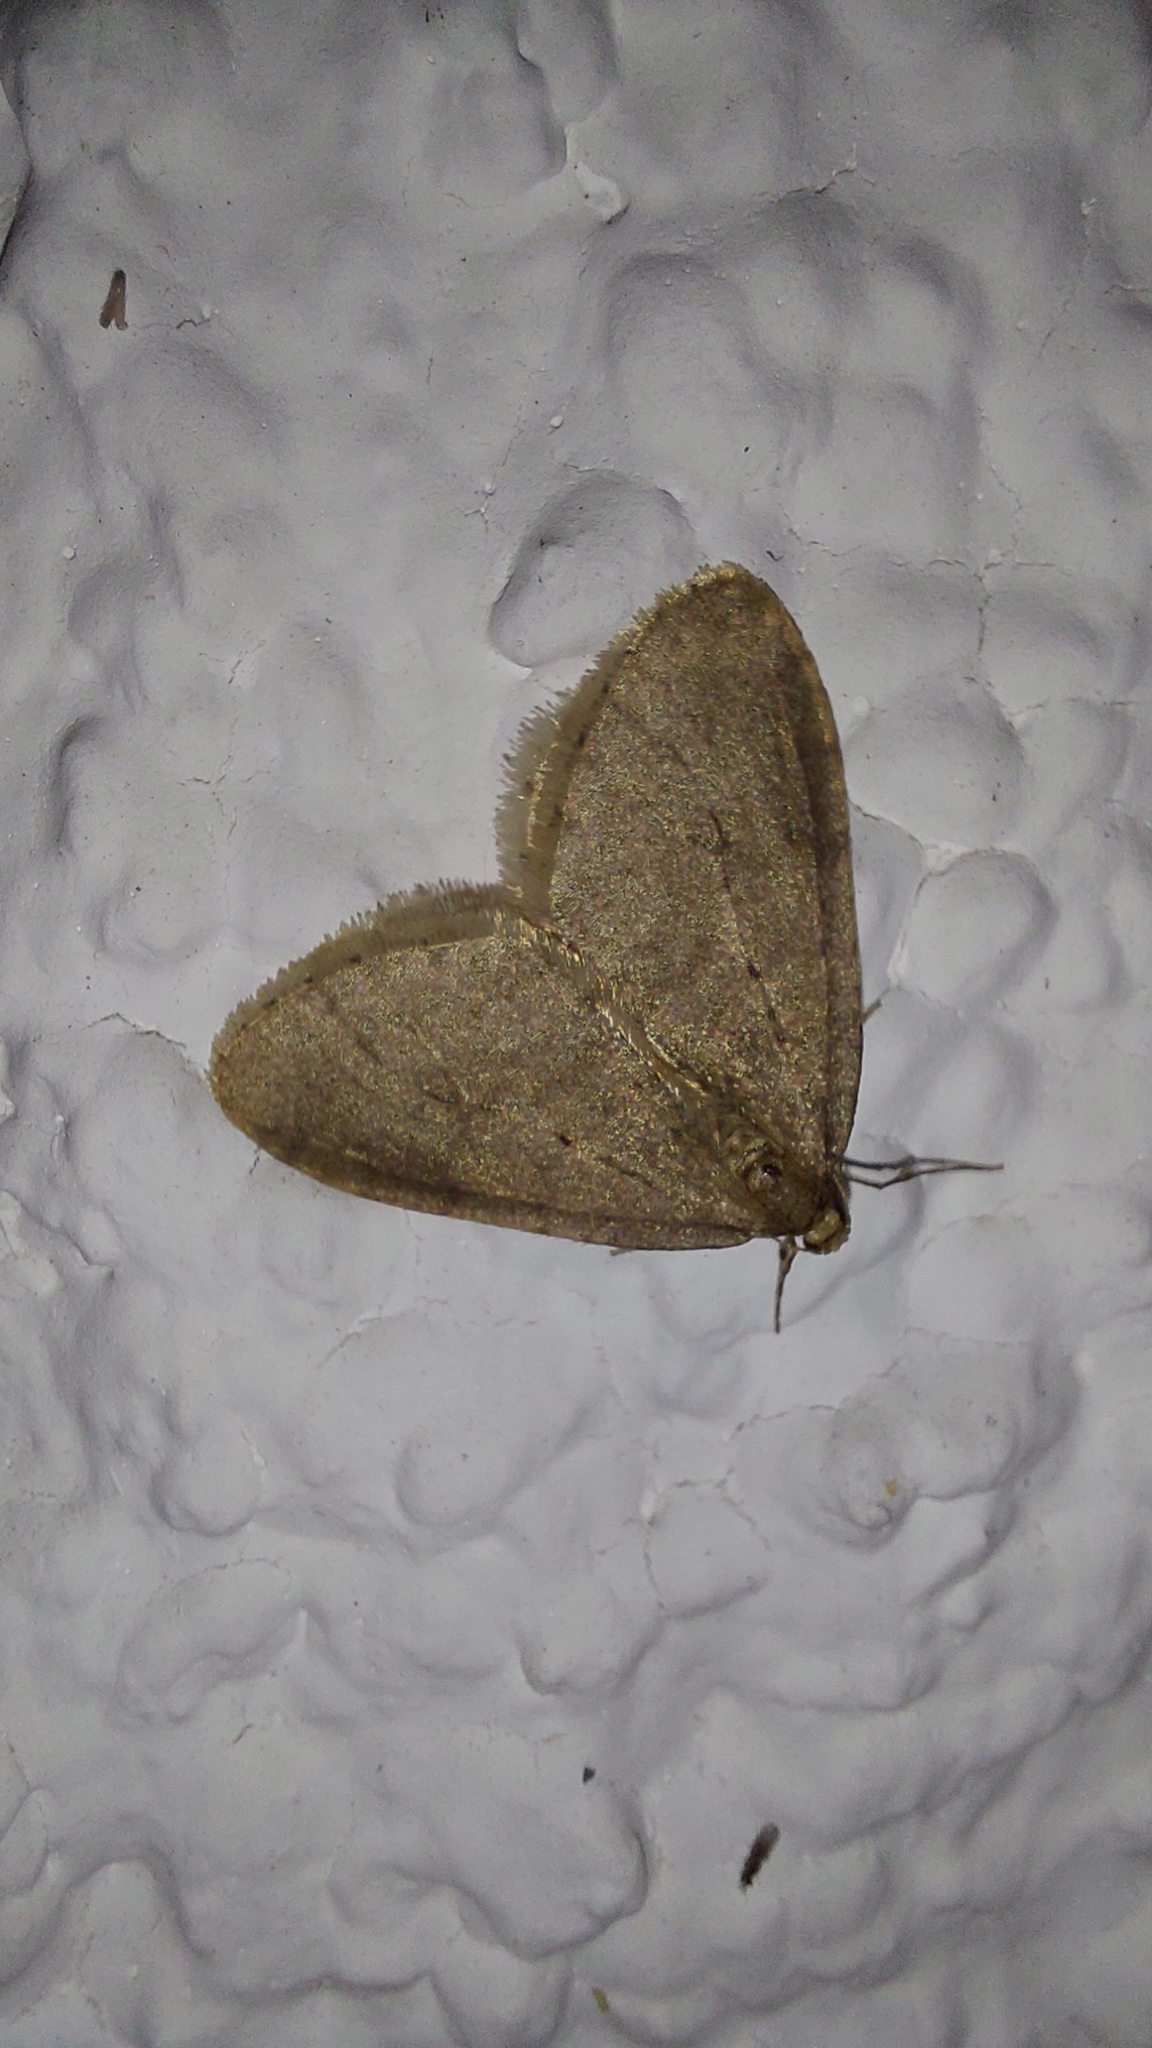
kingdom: Animalia
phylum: Arthropoda
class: Insecta
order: Lepidoptera
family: Geometridae
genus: Operophtera
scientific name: Operophtera brumata
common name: Winter moth
